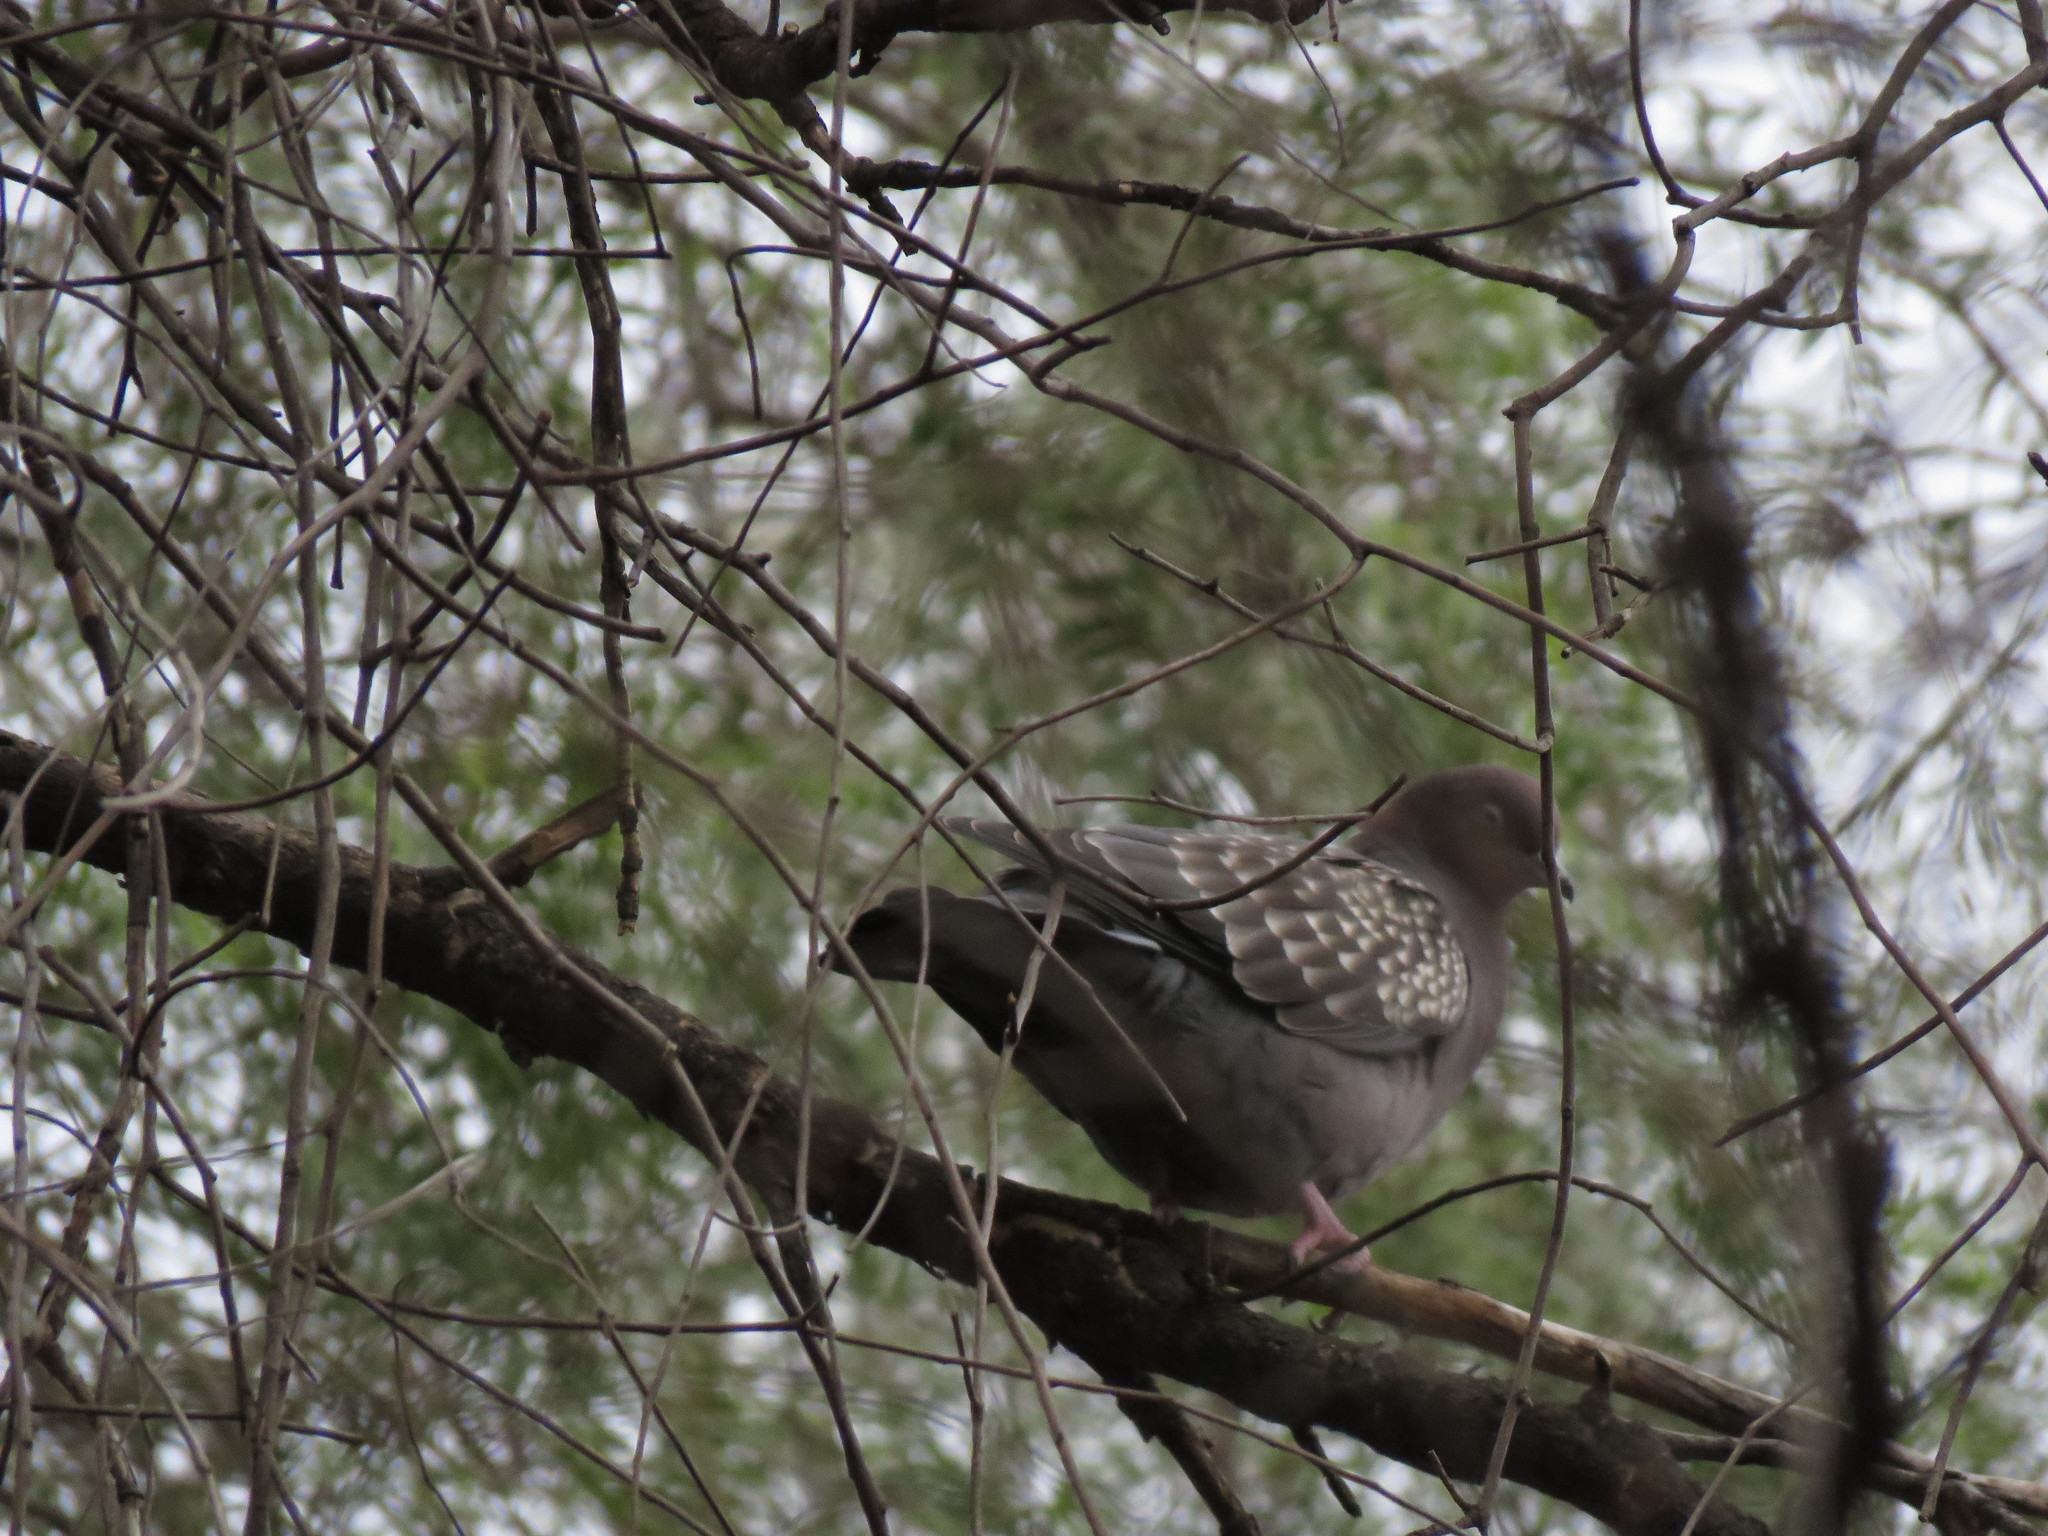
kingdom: Animalia
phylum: Chordata
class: Aves
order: Columbiformes
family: Columbidae
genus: Patagioenas
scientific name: Patagioenas maculosa
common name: Spot-winged pigeon
